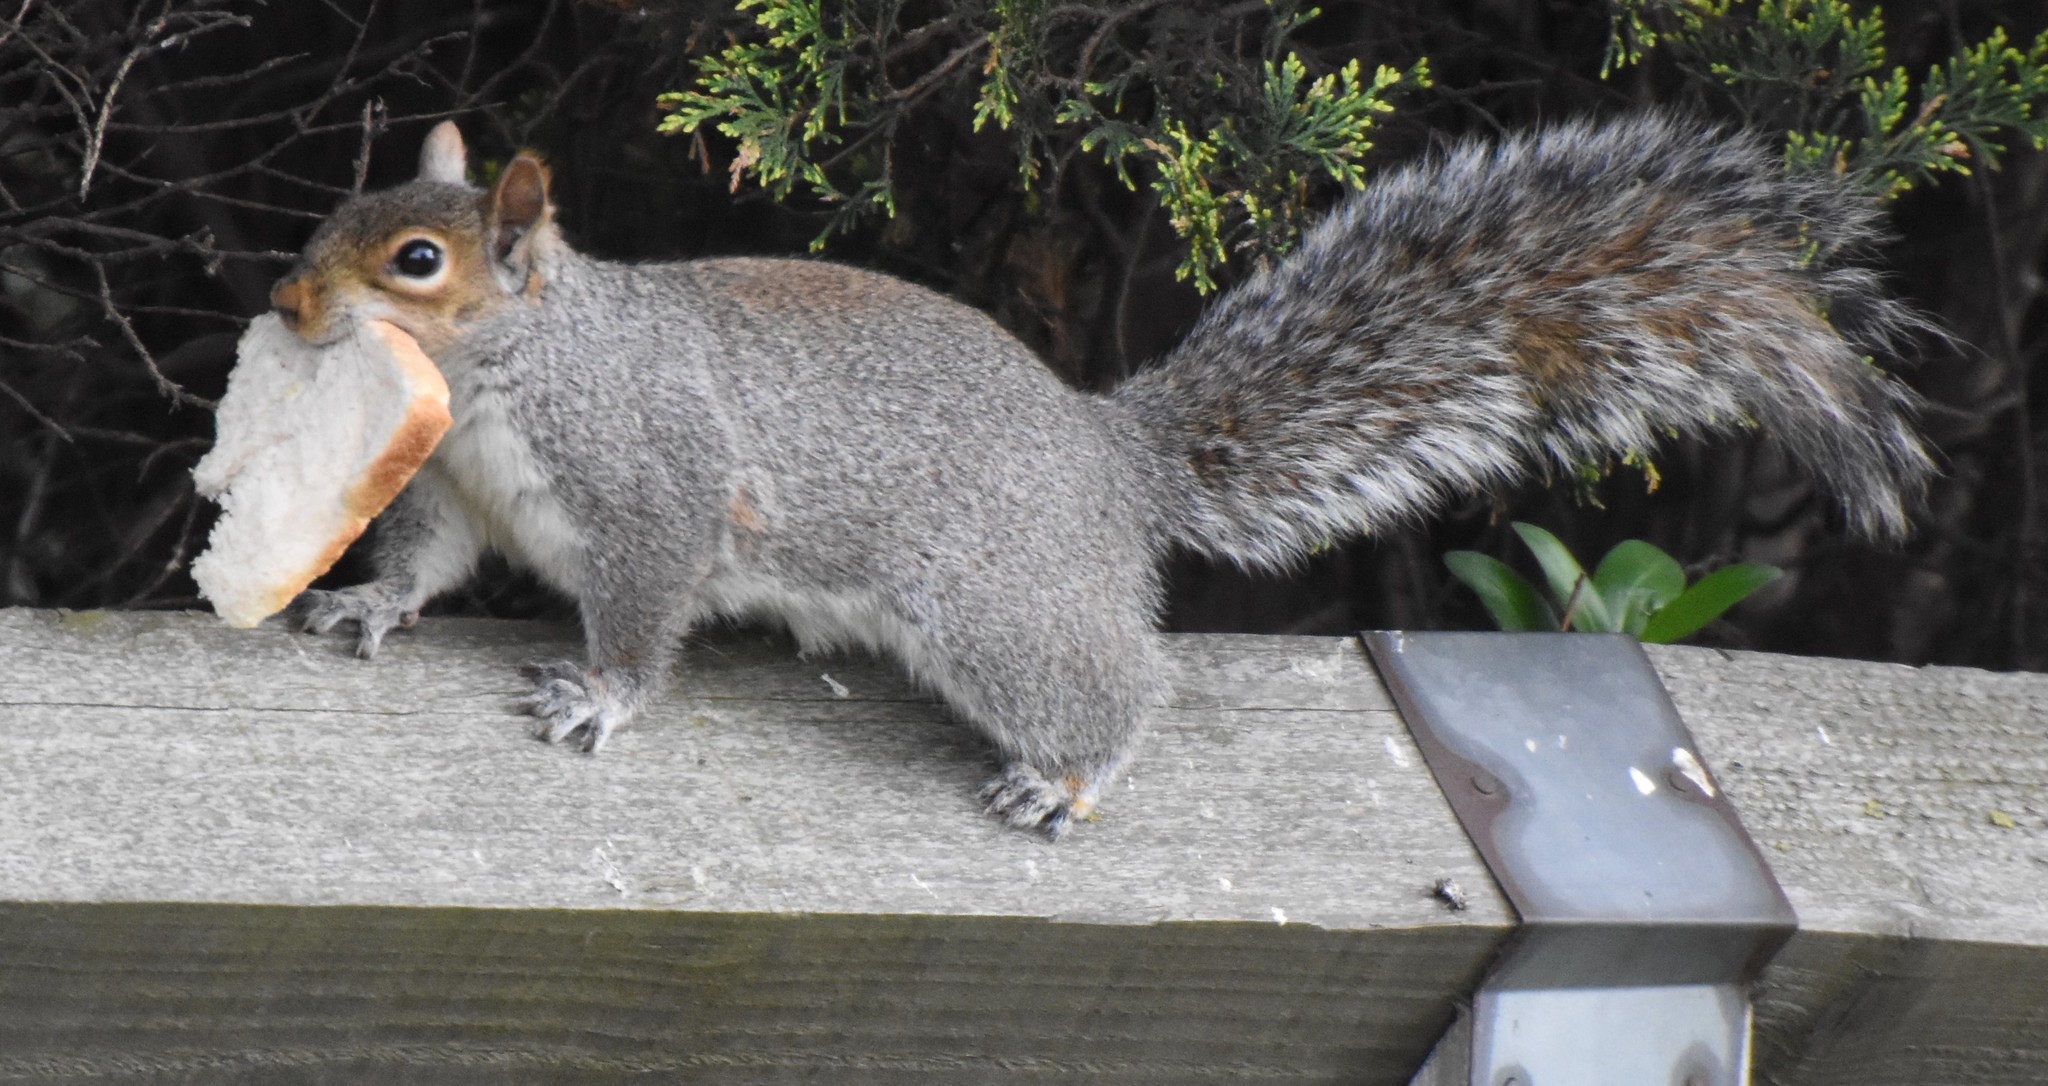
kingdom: Animalia
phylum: Chordata
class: Mammalia
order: Rodentia
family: Sciuridae
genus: Sciurus
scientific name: Sciurus carolinensis
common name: Eastern gray squirrel
